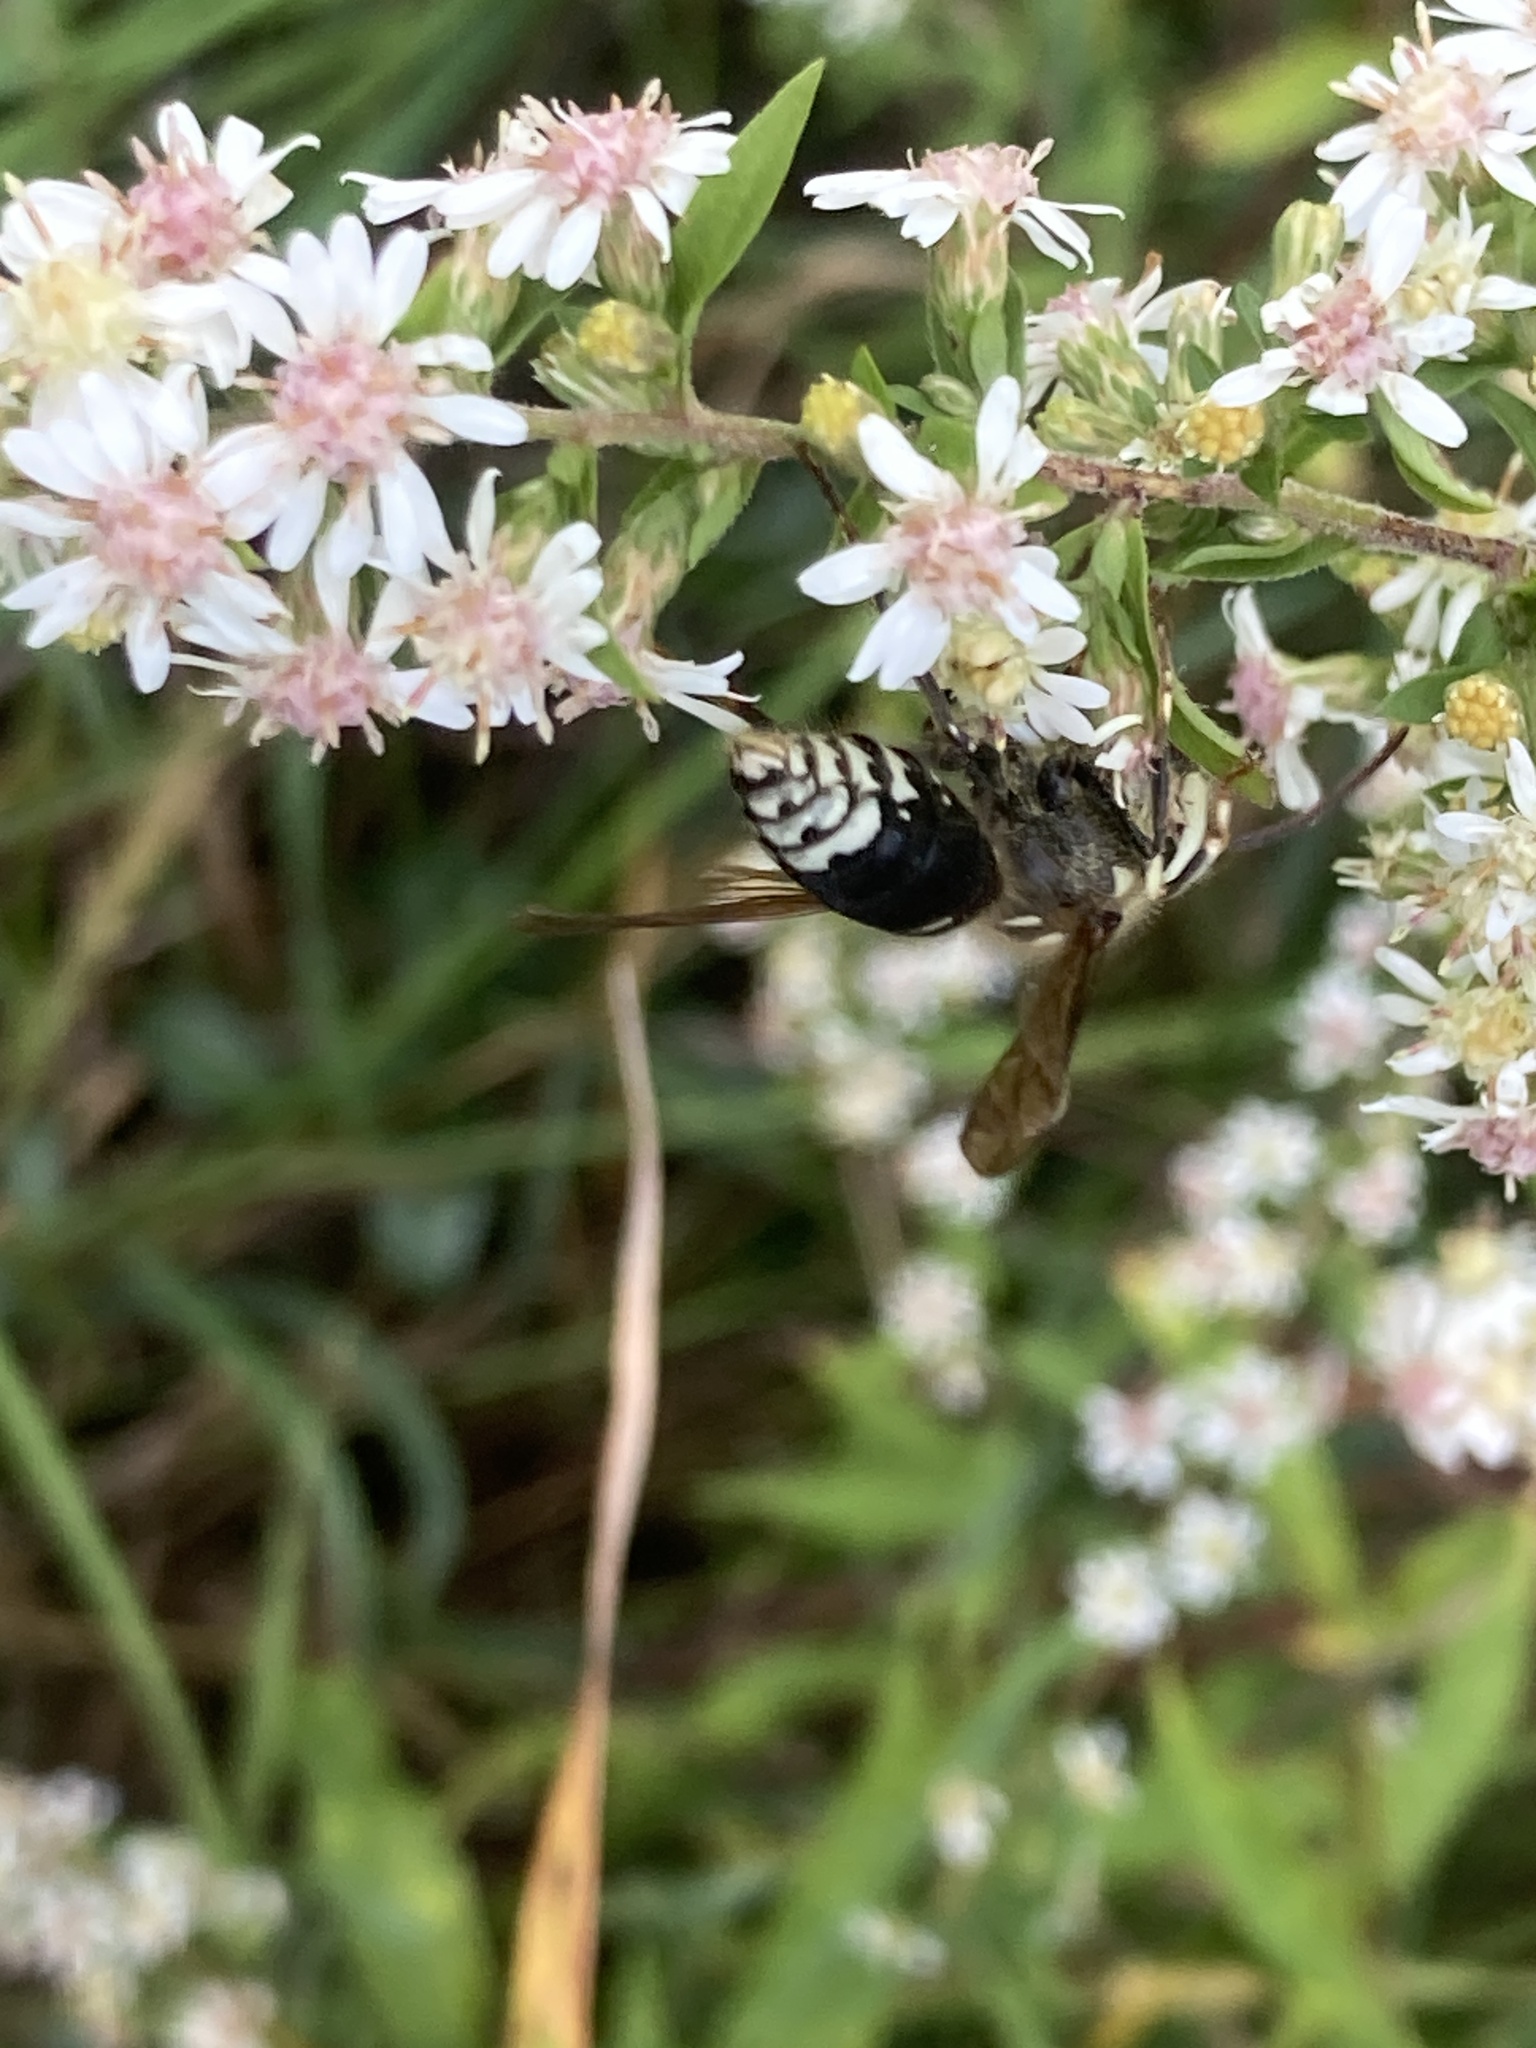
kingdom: Animalia
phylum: Arthropoda
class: Insecta
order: Hymenoptera
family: Vespidae
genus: Dolichovespula
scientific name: Dolichovespula maculata
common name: Bald-faced hornet
